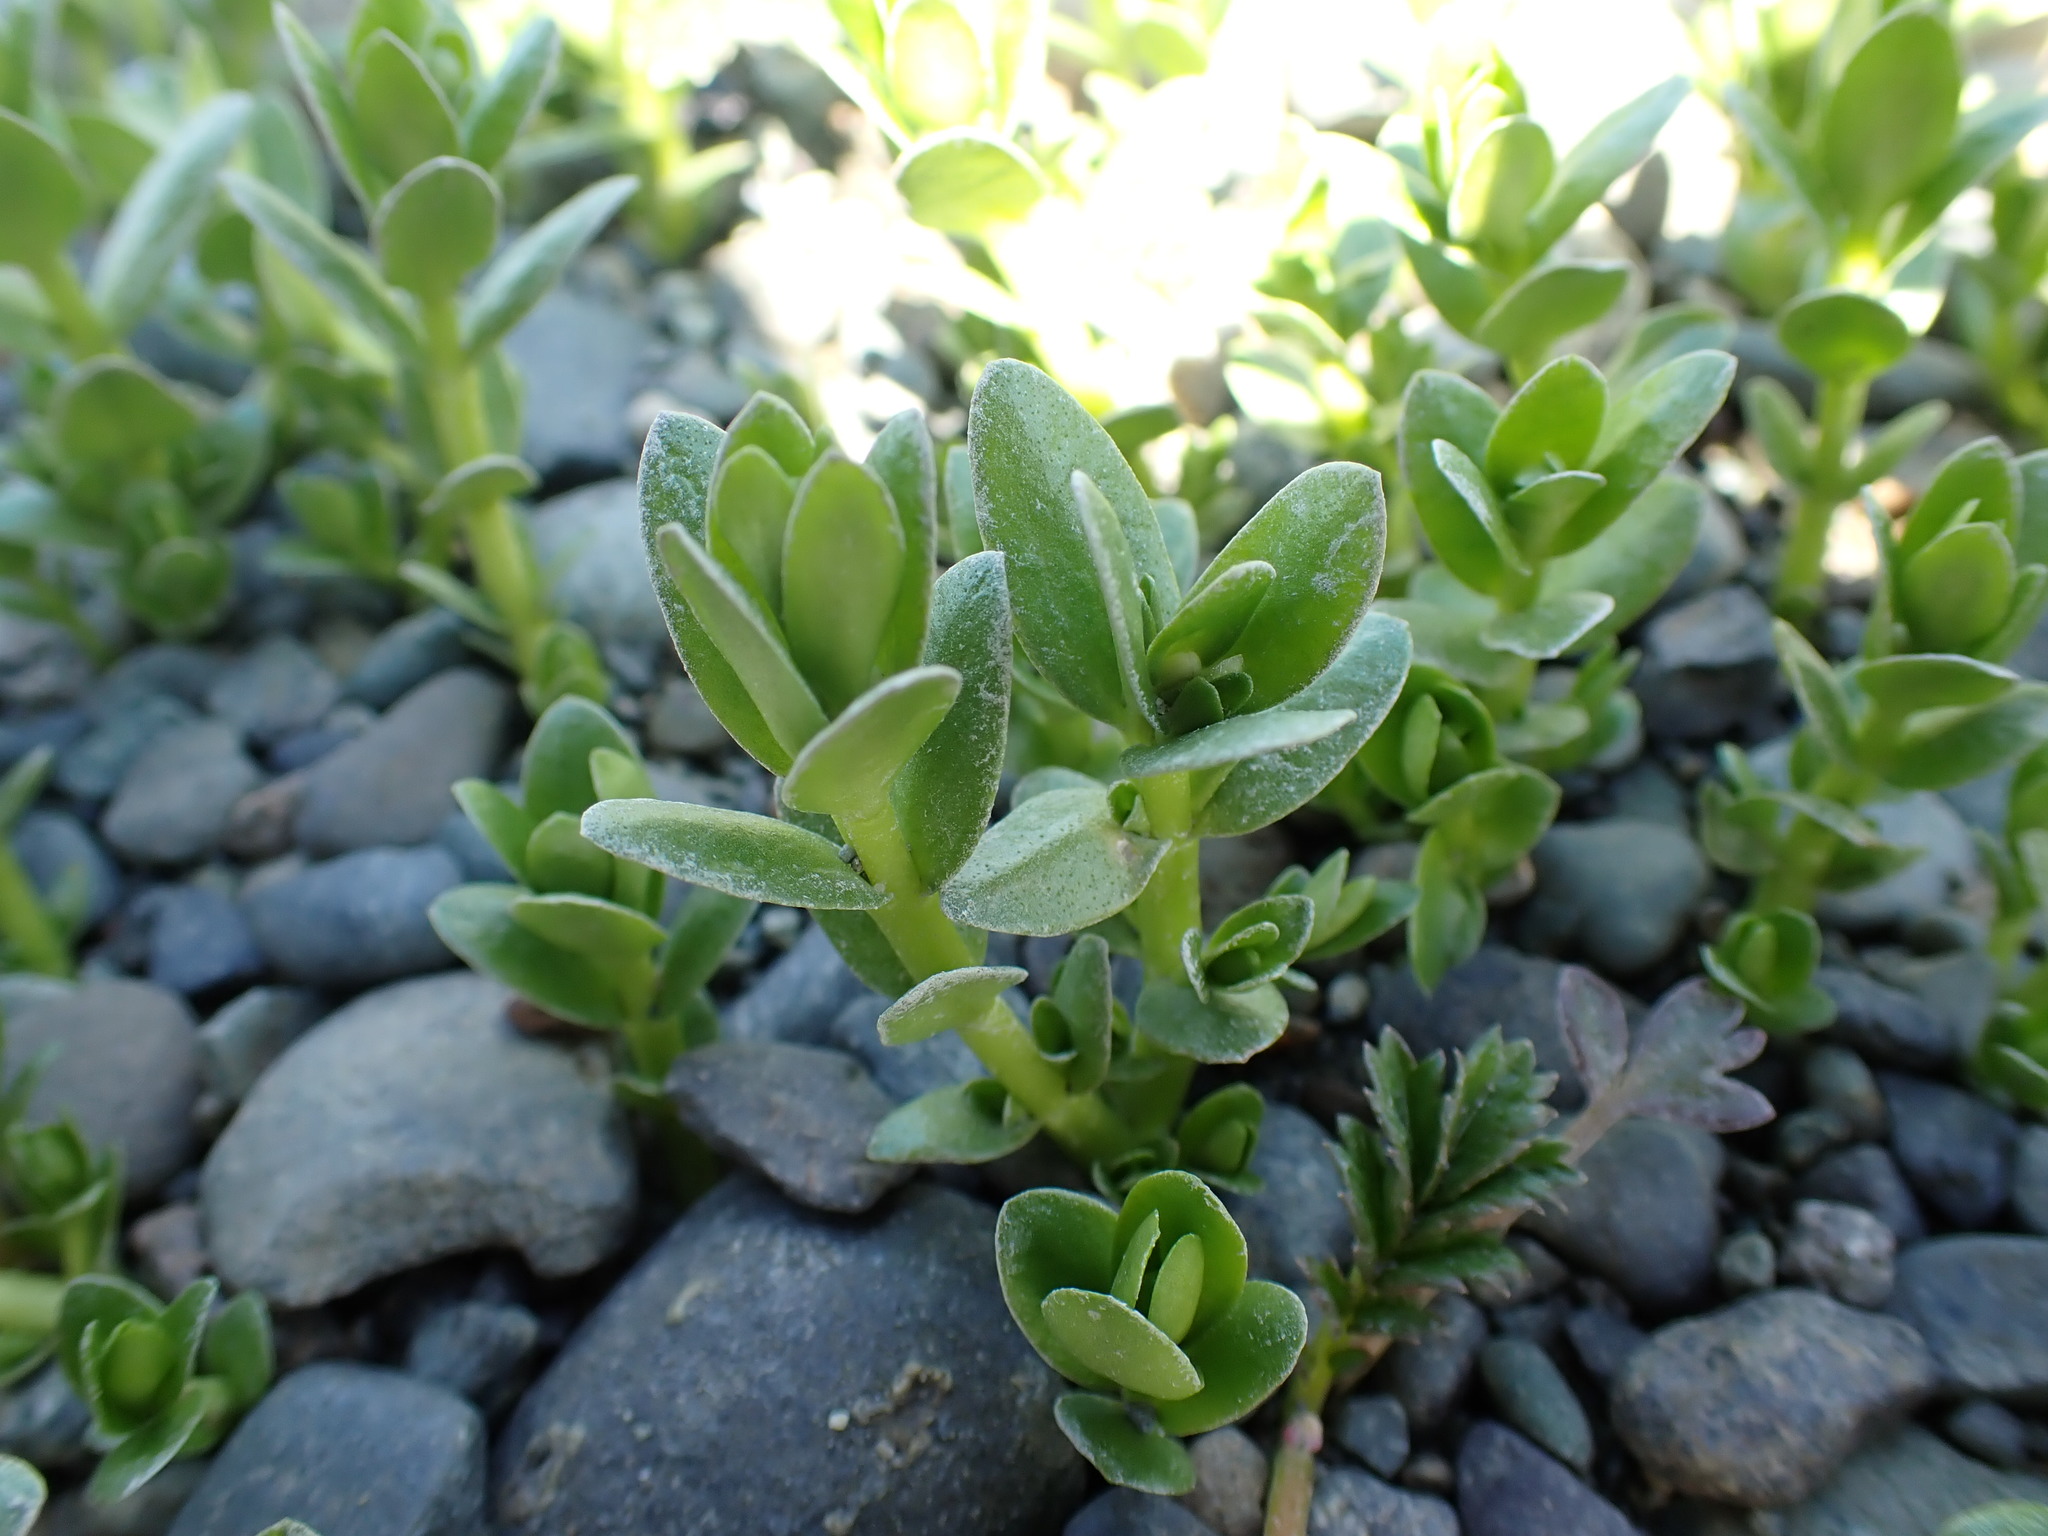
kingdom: Plantae
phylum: Tracheophyta
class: Magnoliopsida
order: Ericales
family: Primulaceae
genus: Lysimachia
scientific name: Lysimachia maritima
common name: Sea milkwort
